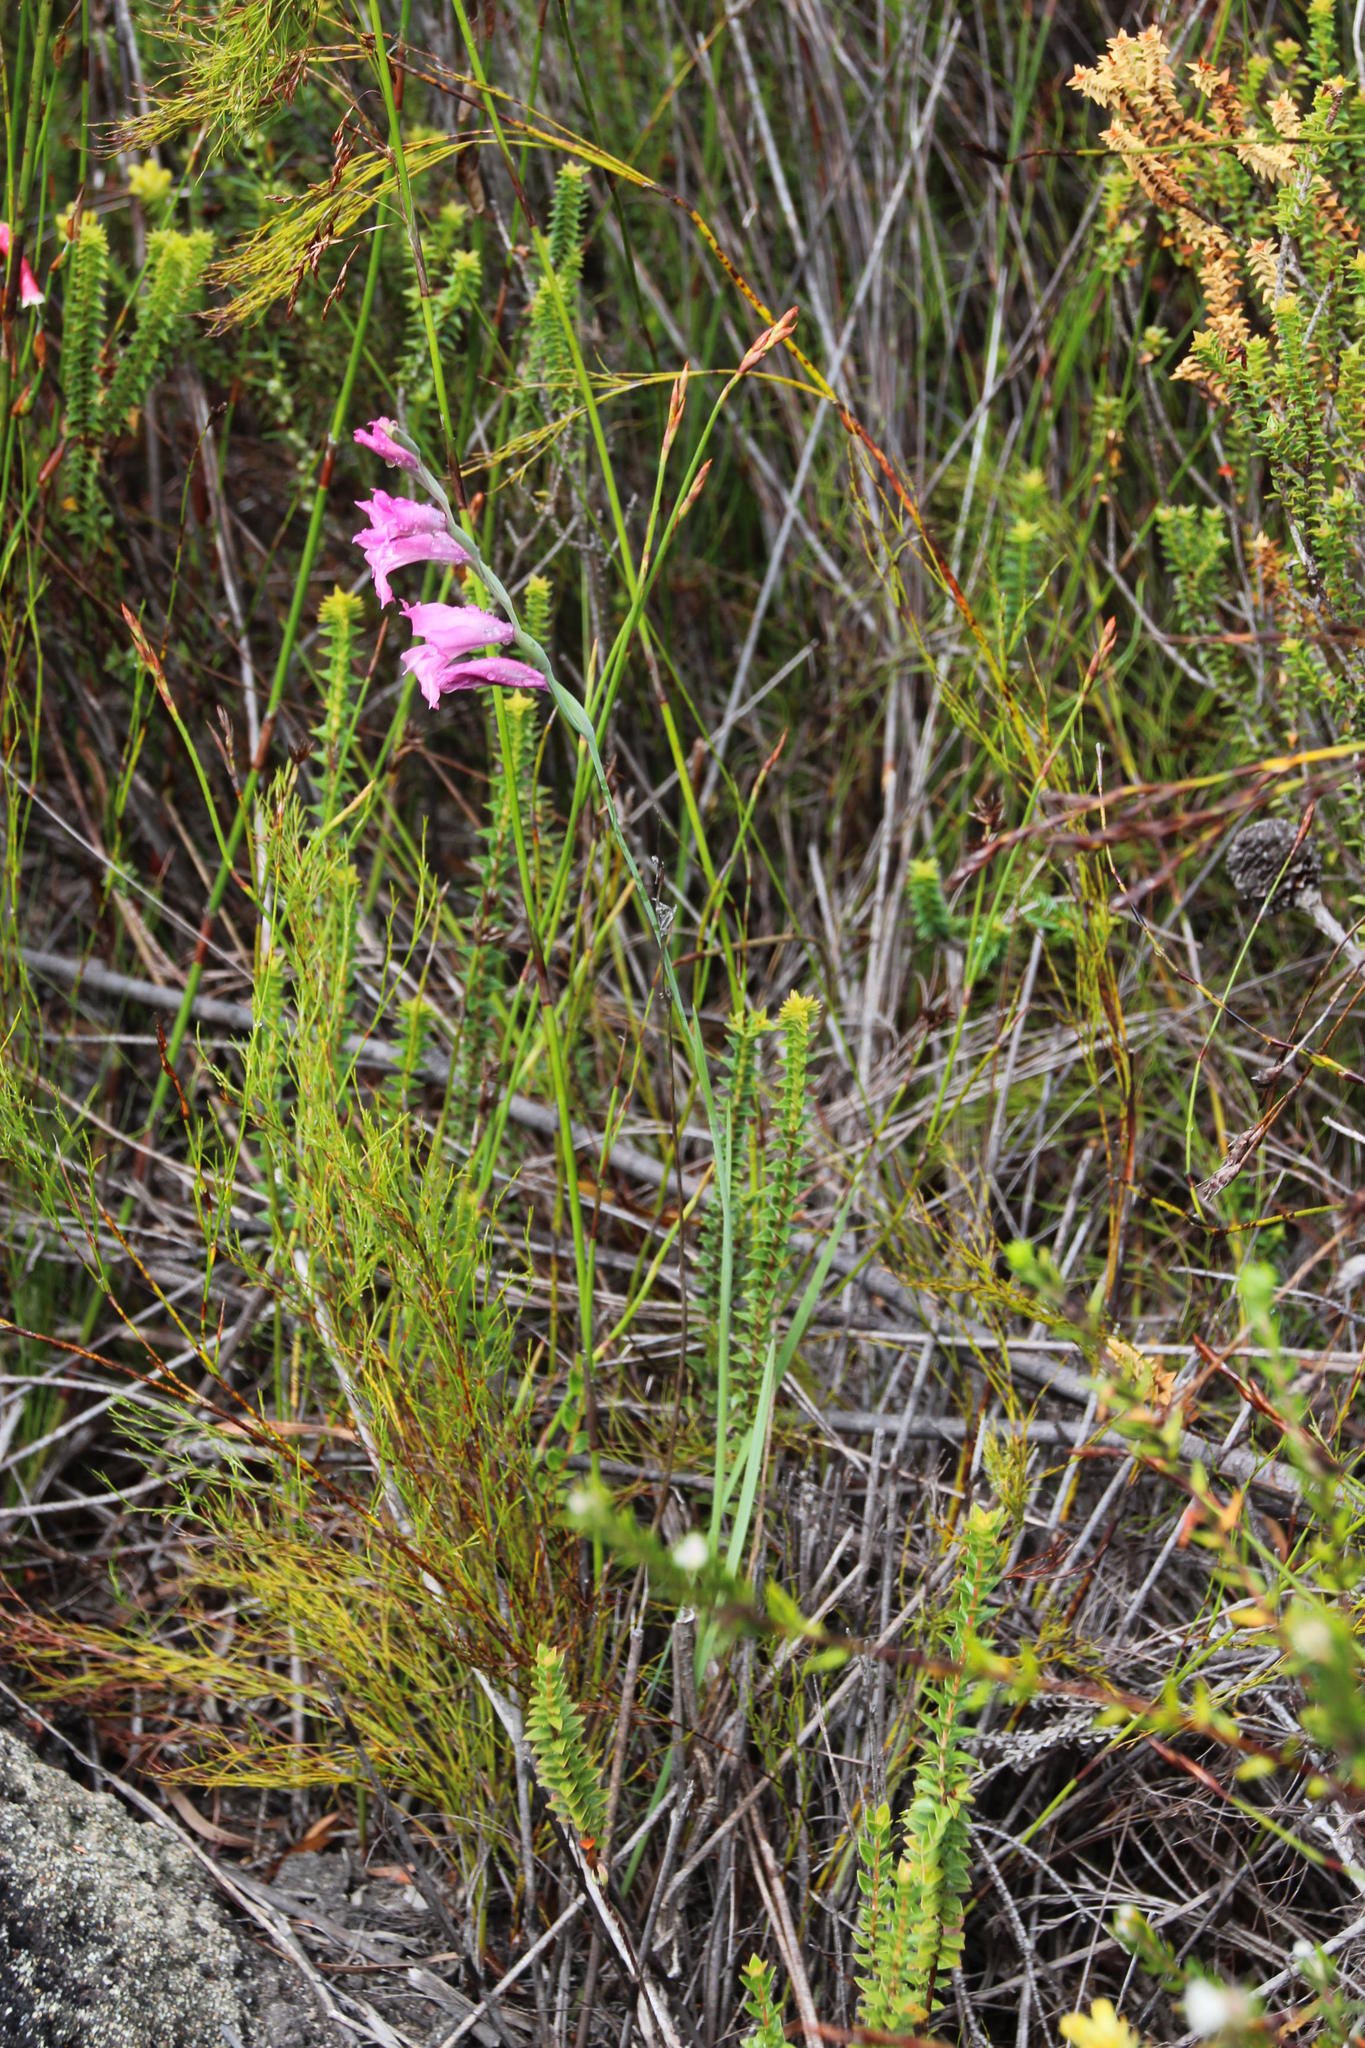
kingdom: Plantae
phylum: Tracheophyta
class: Liliopsida
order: Asparagales
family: Iridaceae
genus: Gladiolus
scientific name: Gladiolus crispulatus
